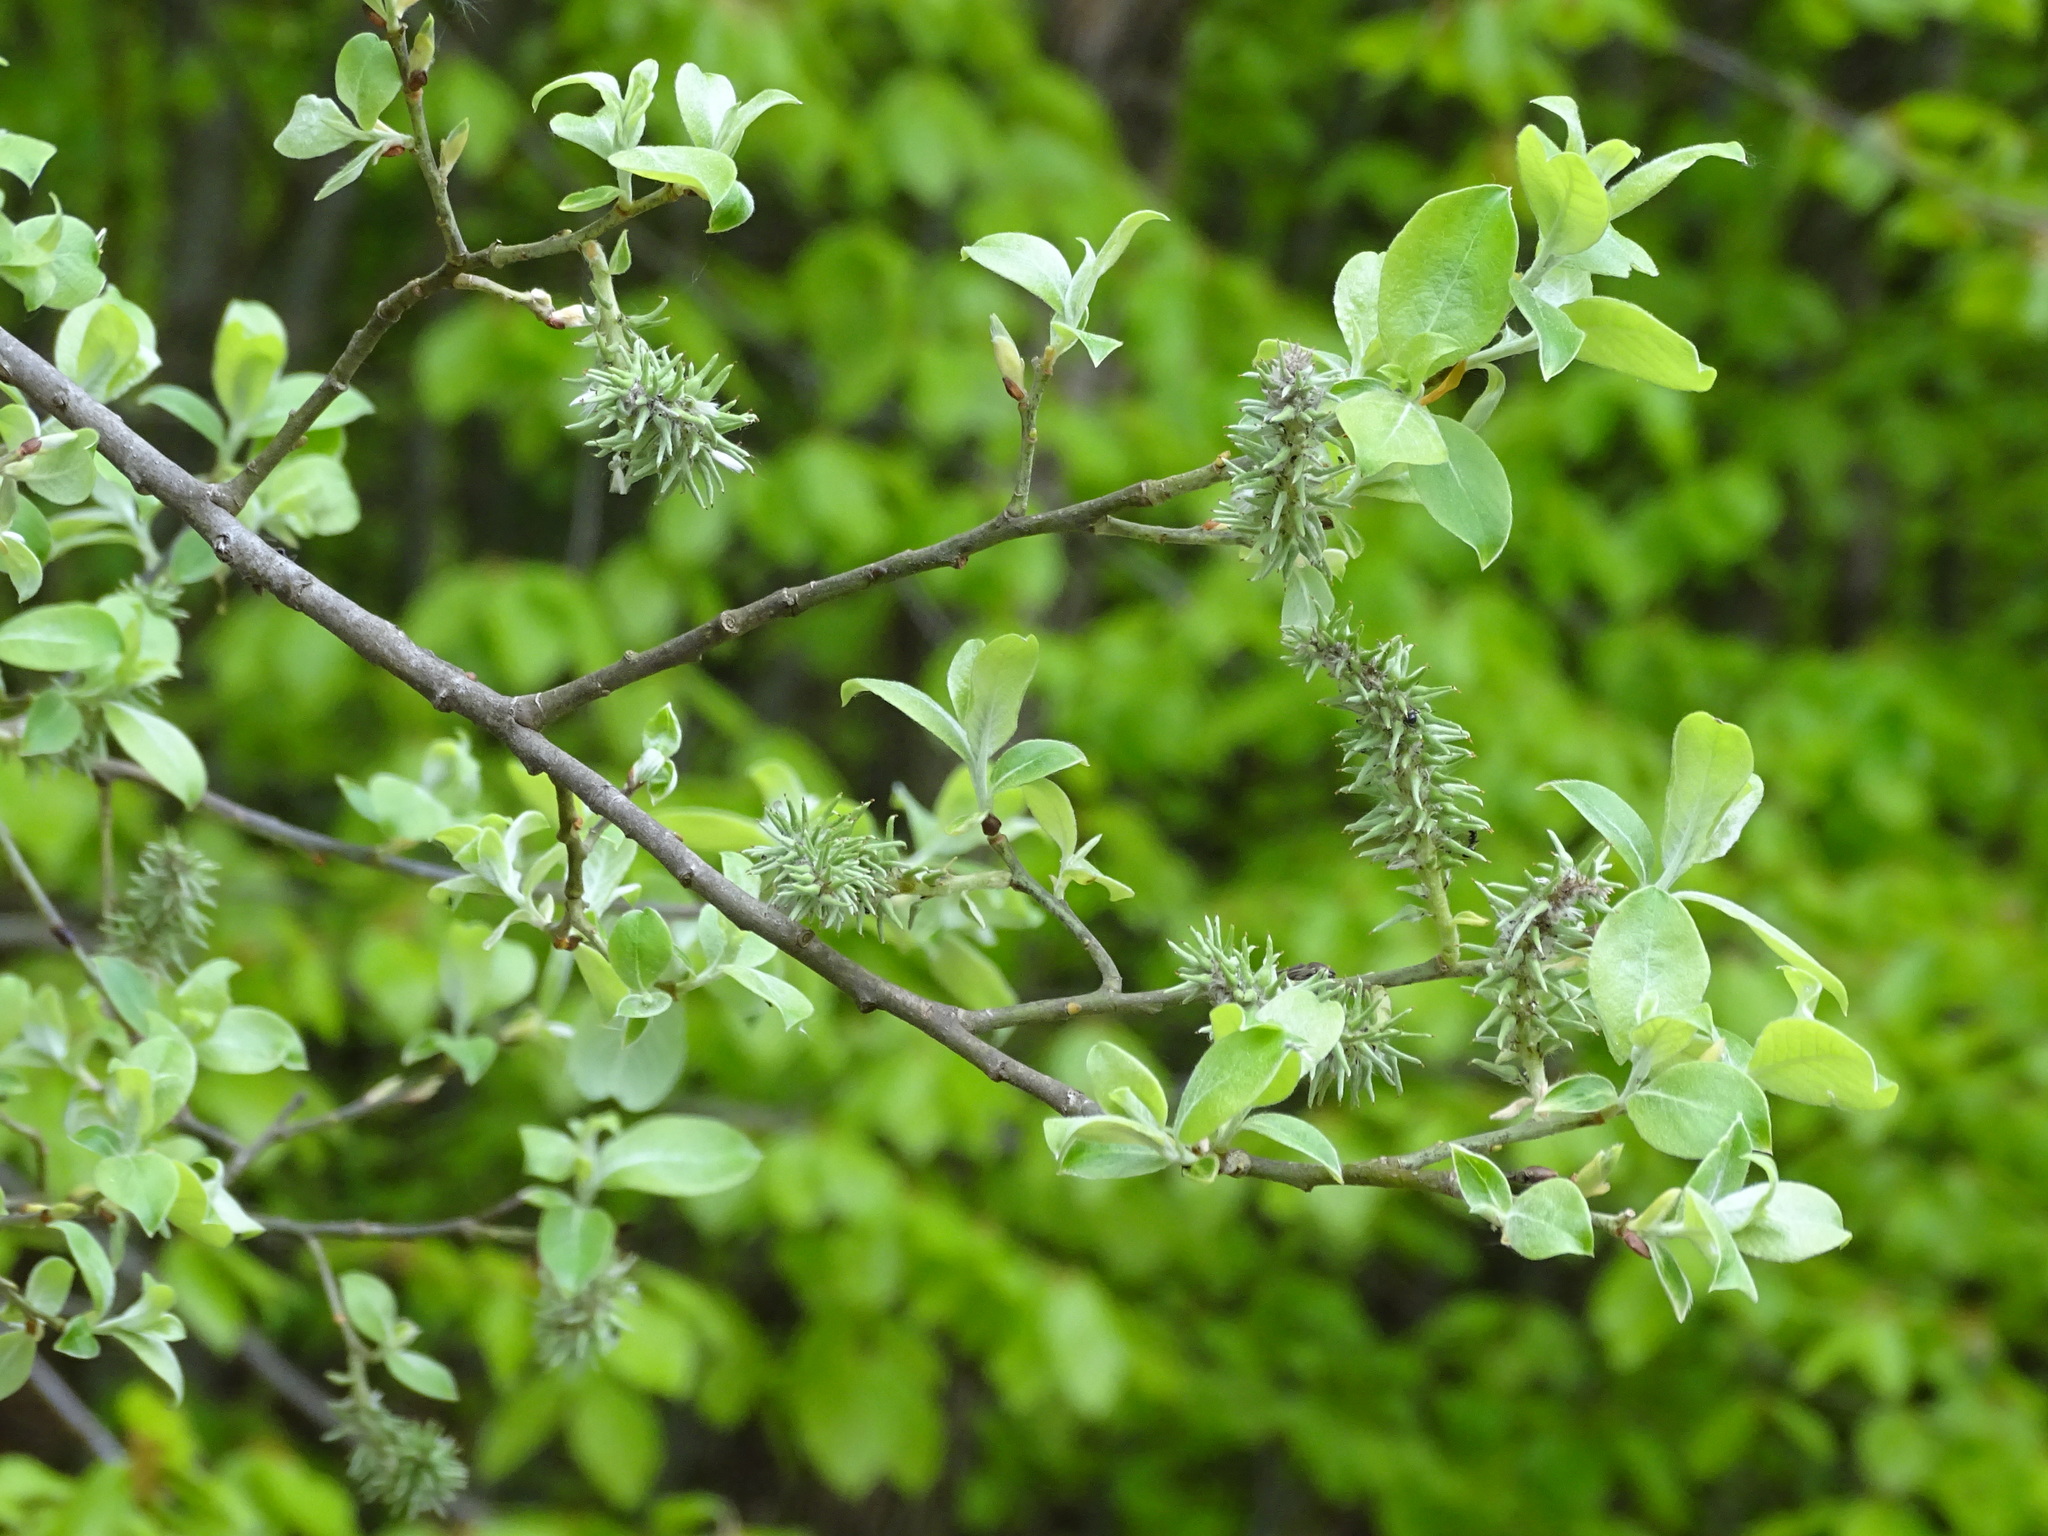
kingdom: Plantae
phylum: Tracheophyta
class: Magnoliopsida
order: Malpighiales
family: Salicaceae
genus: Salix
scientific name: Salix caprea
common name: Goat willow
